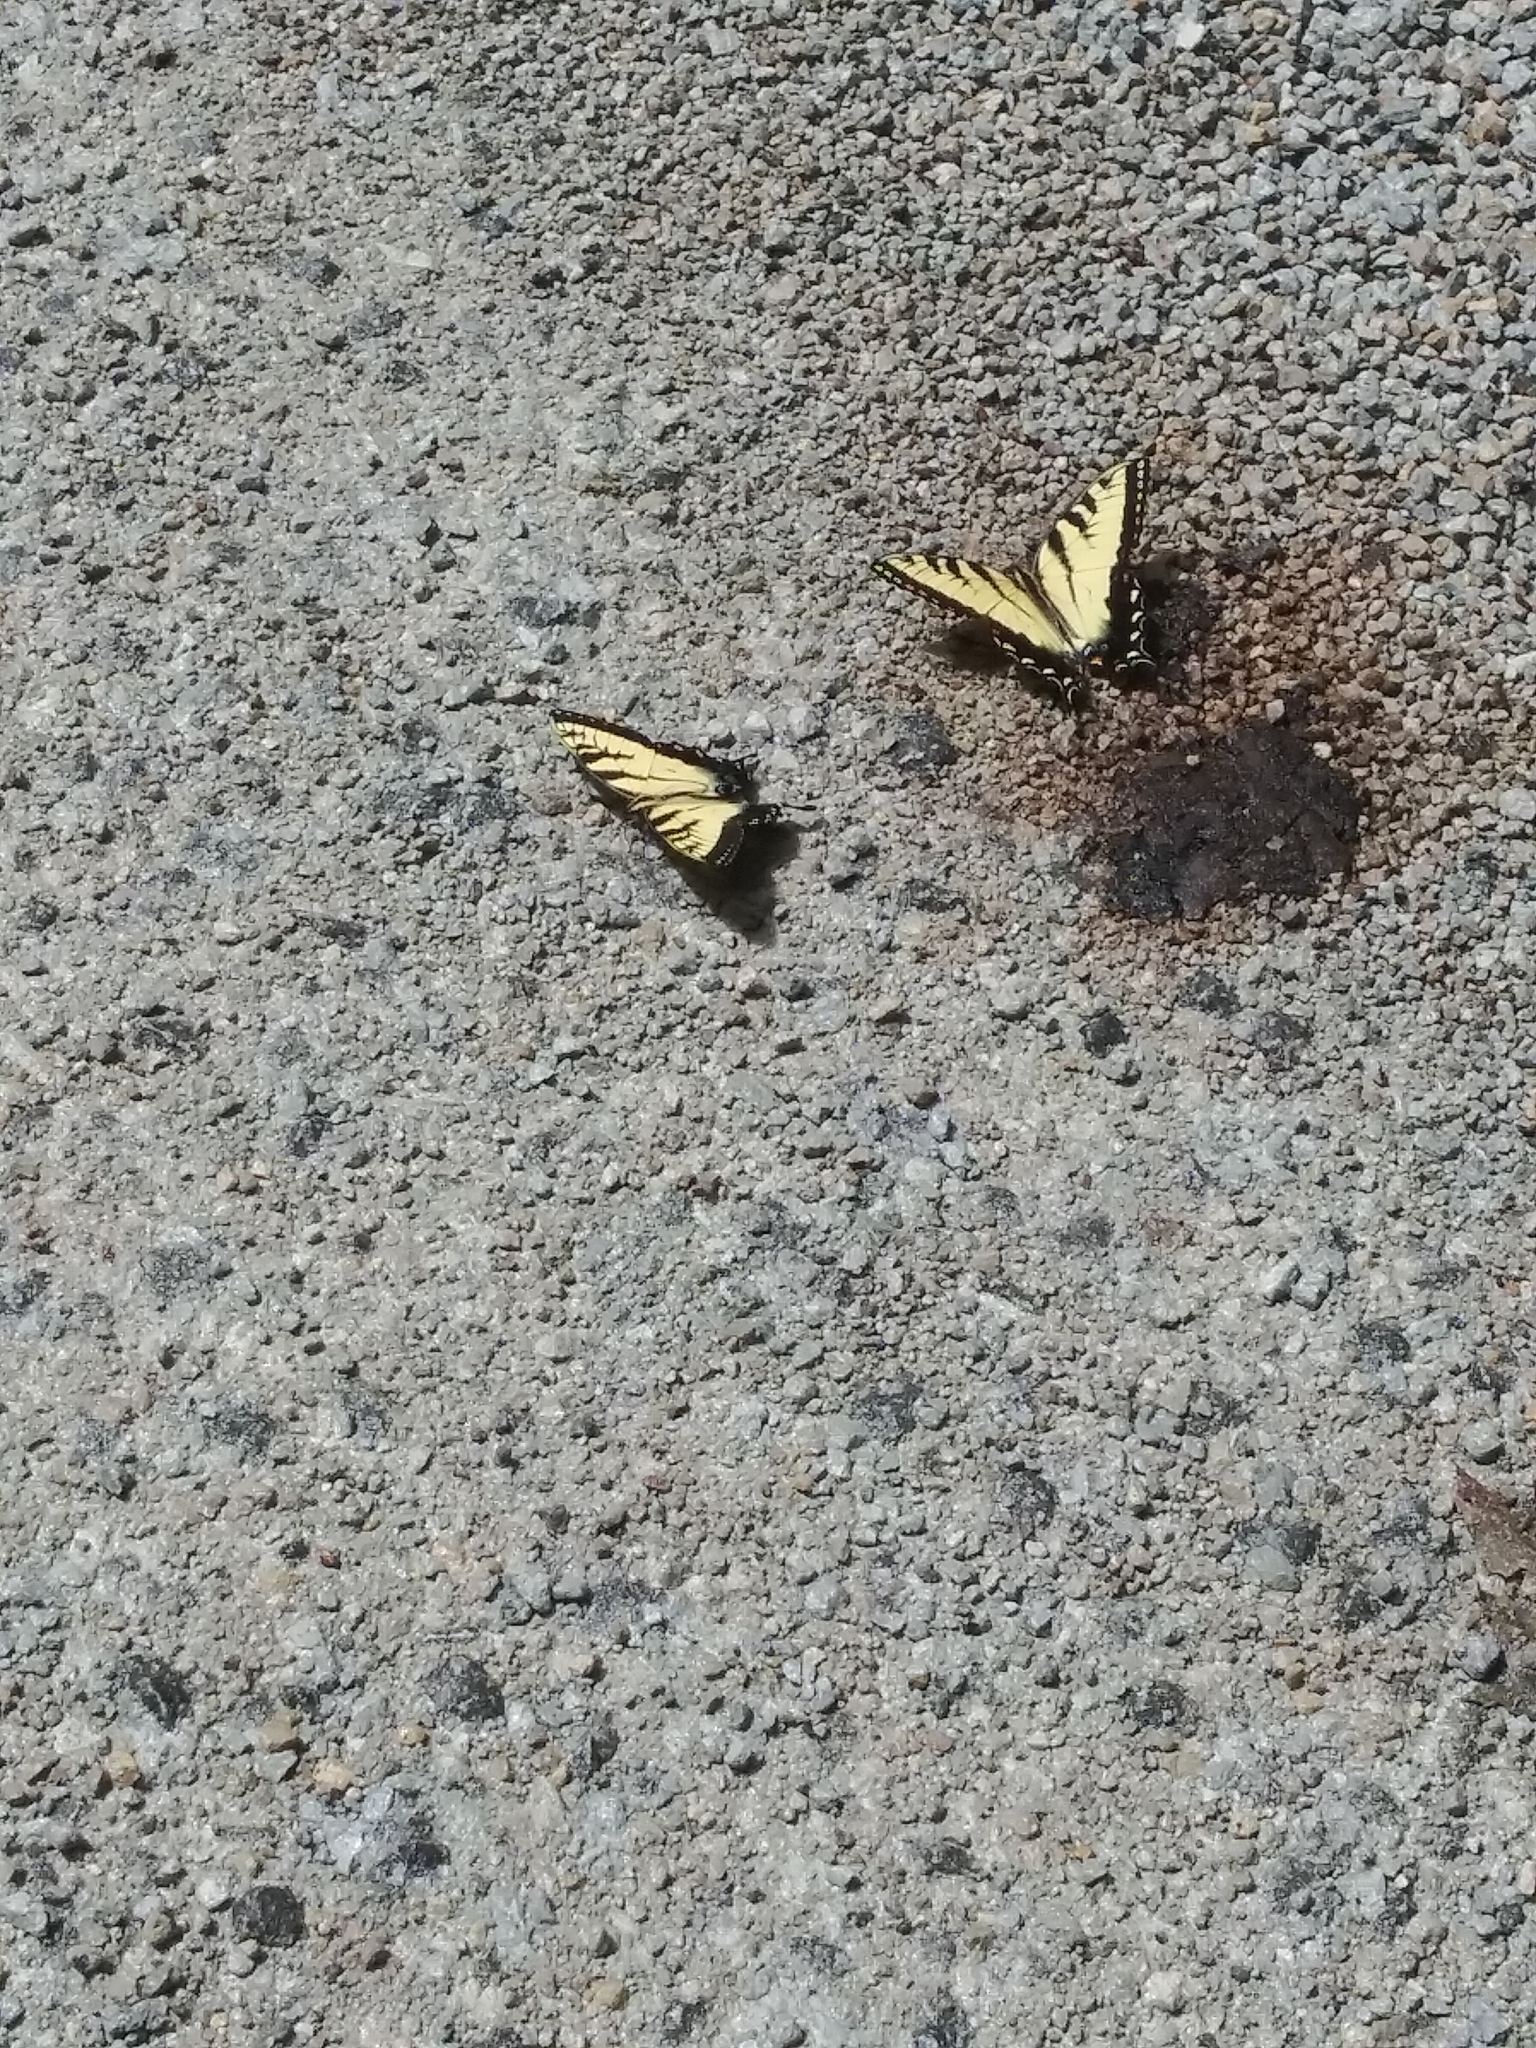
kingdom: Animalia
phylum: Arthropoda
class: Insecta
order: Lepidoptera
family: Papilionidae
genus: Papilio
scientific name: Papilio glaucus
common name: Tiger swallowtail
